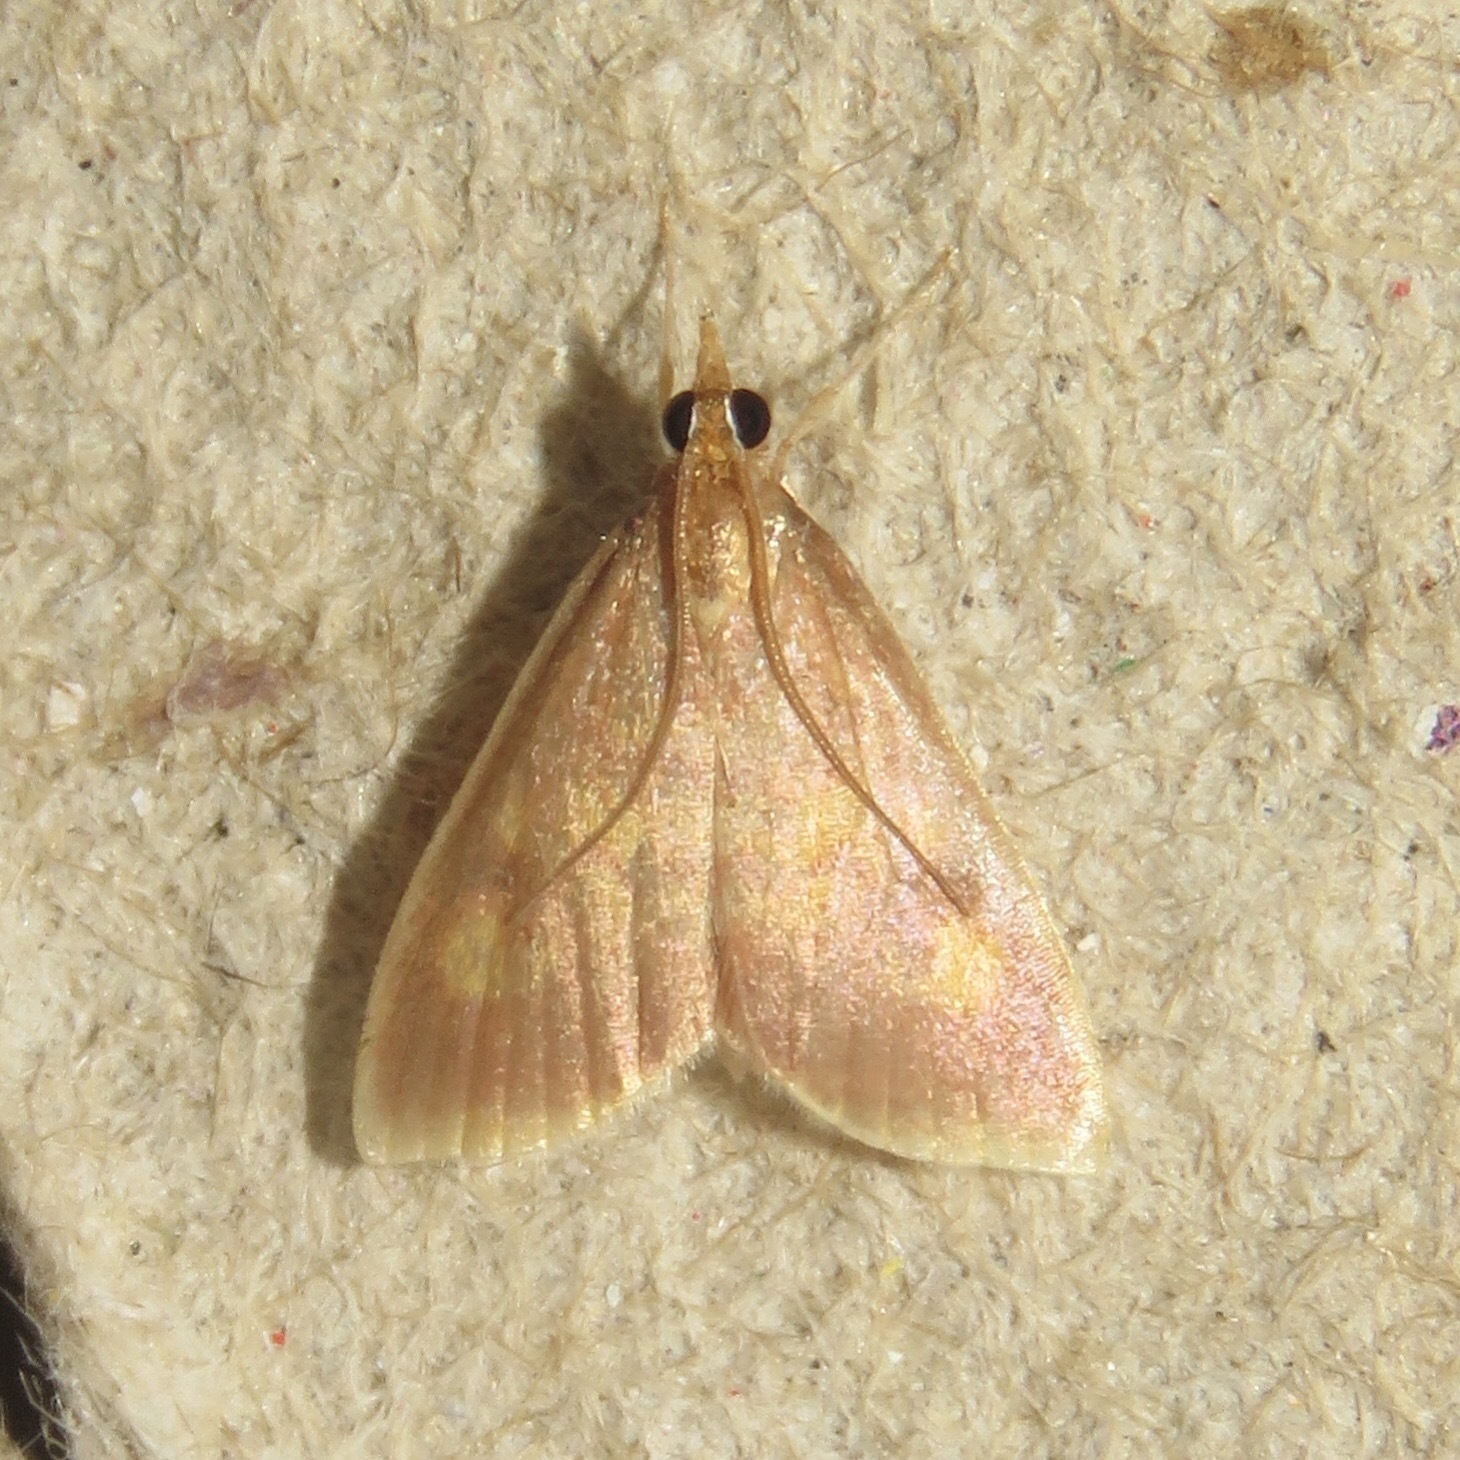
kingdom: Animalia
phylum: Arthropoda
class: Insecta
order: Lepidoptera
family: Crambidae
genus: Pyrausta
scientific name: Pyrausta acrionalis
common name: Mint-loving pyrausta moth
